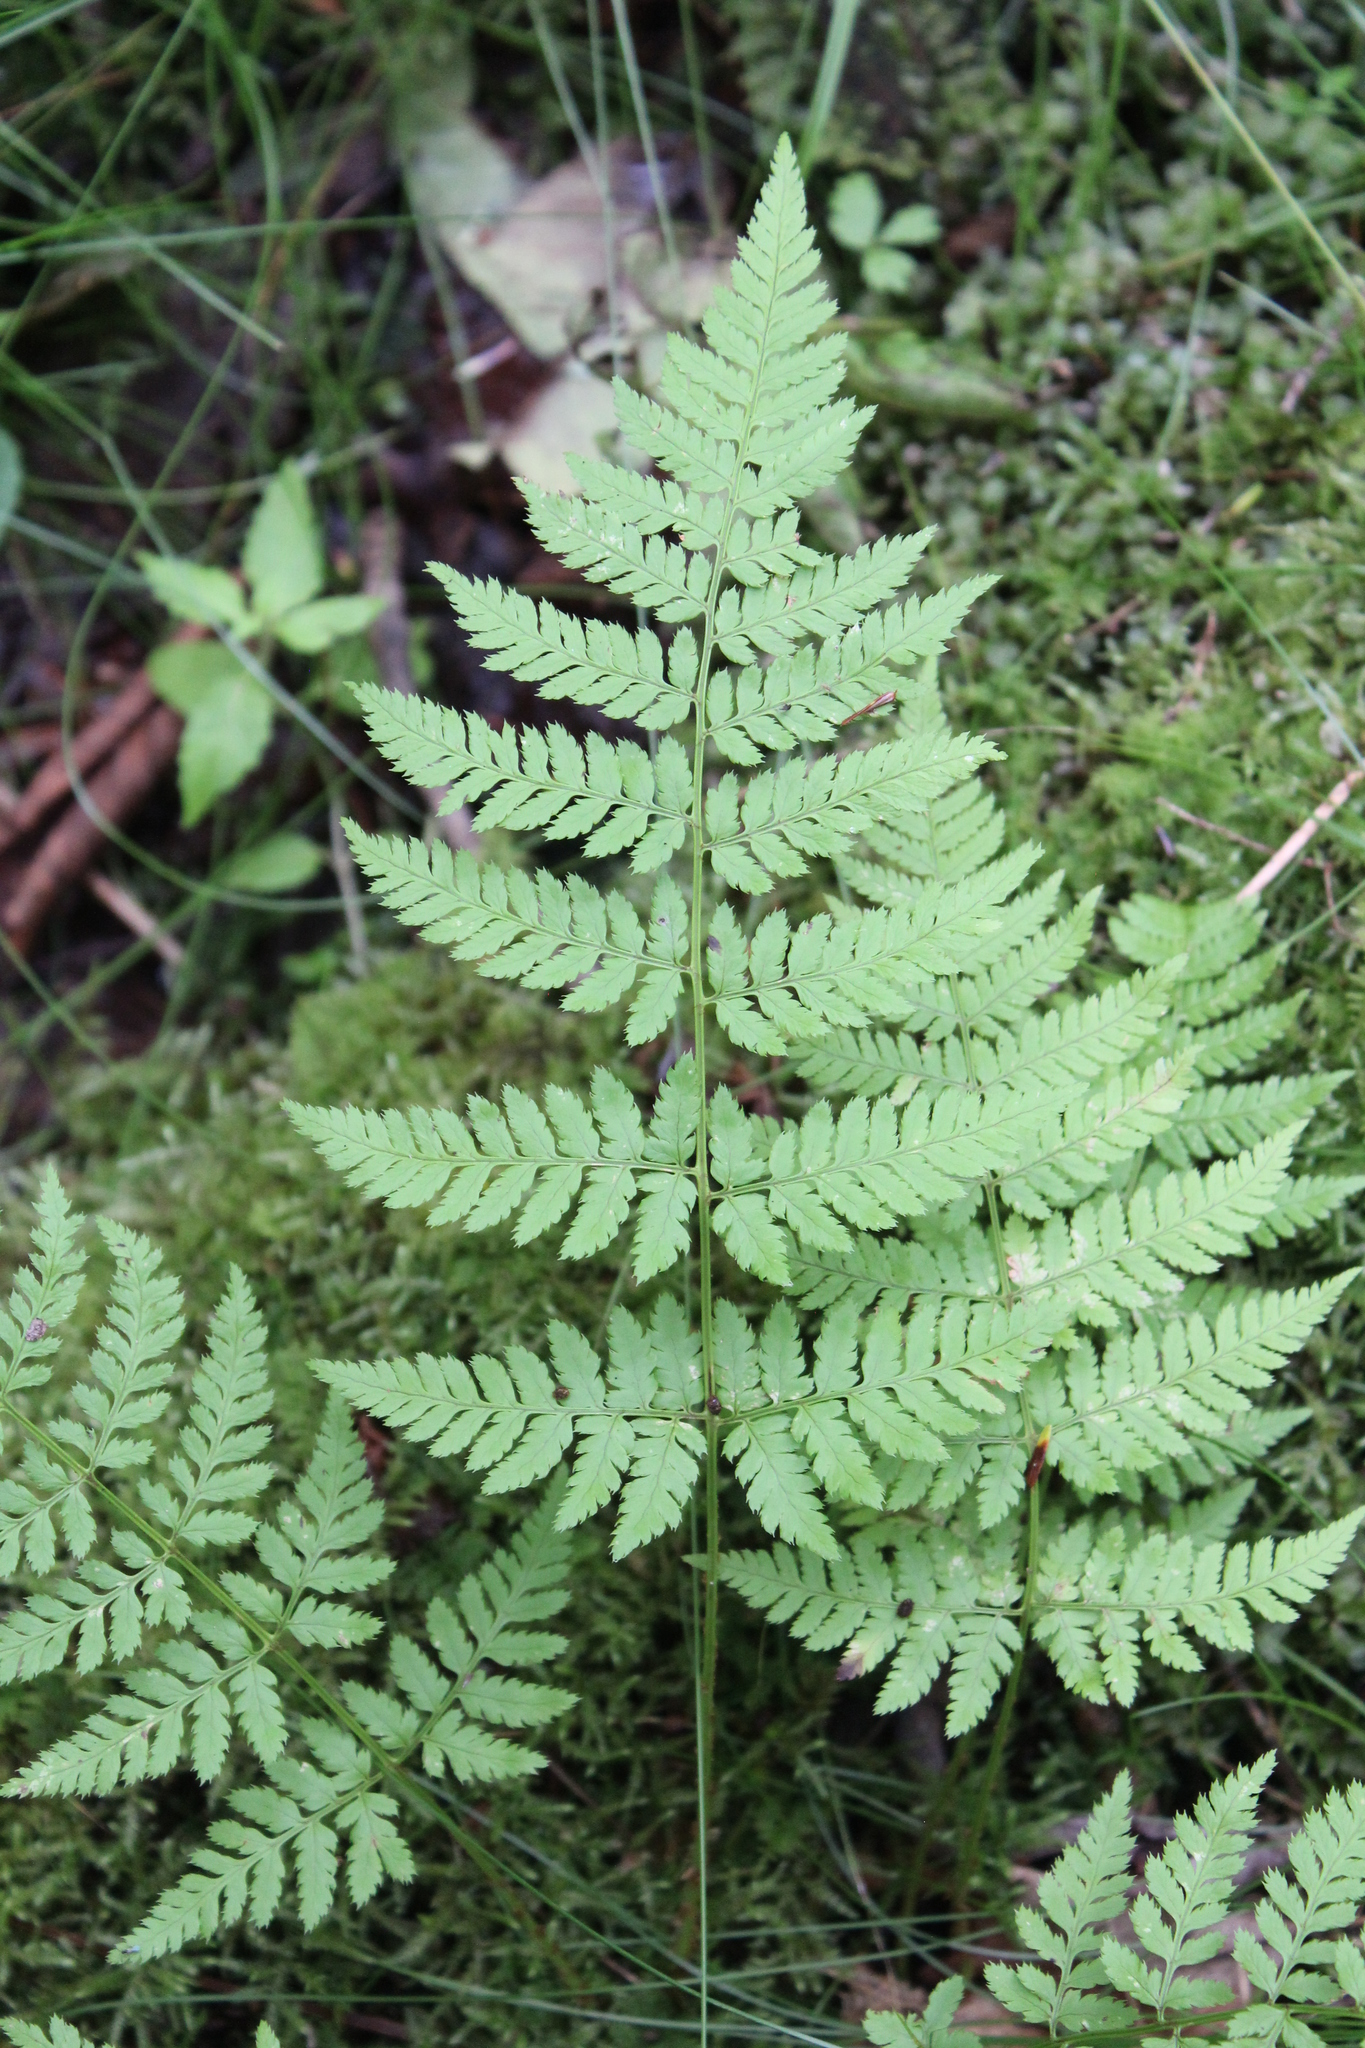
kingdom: Plantae
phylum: Tracheophyta
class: Polypodiopsida
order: Polypodiales
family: Dryopteridaceae
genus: Dryopteris
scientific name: Dryopteris carthusiana
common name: Narrow buckler-fern
